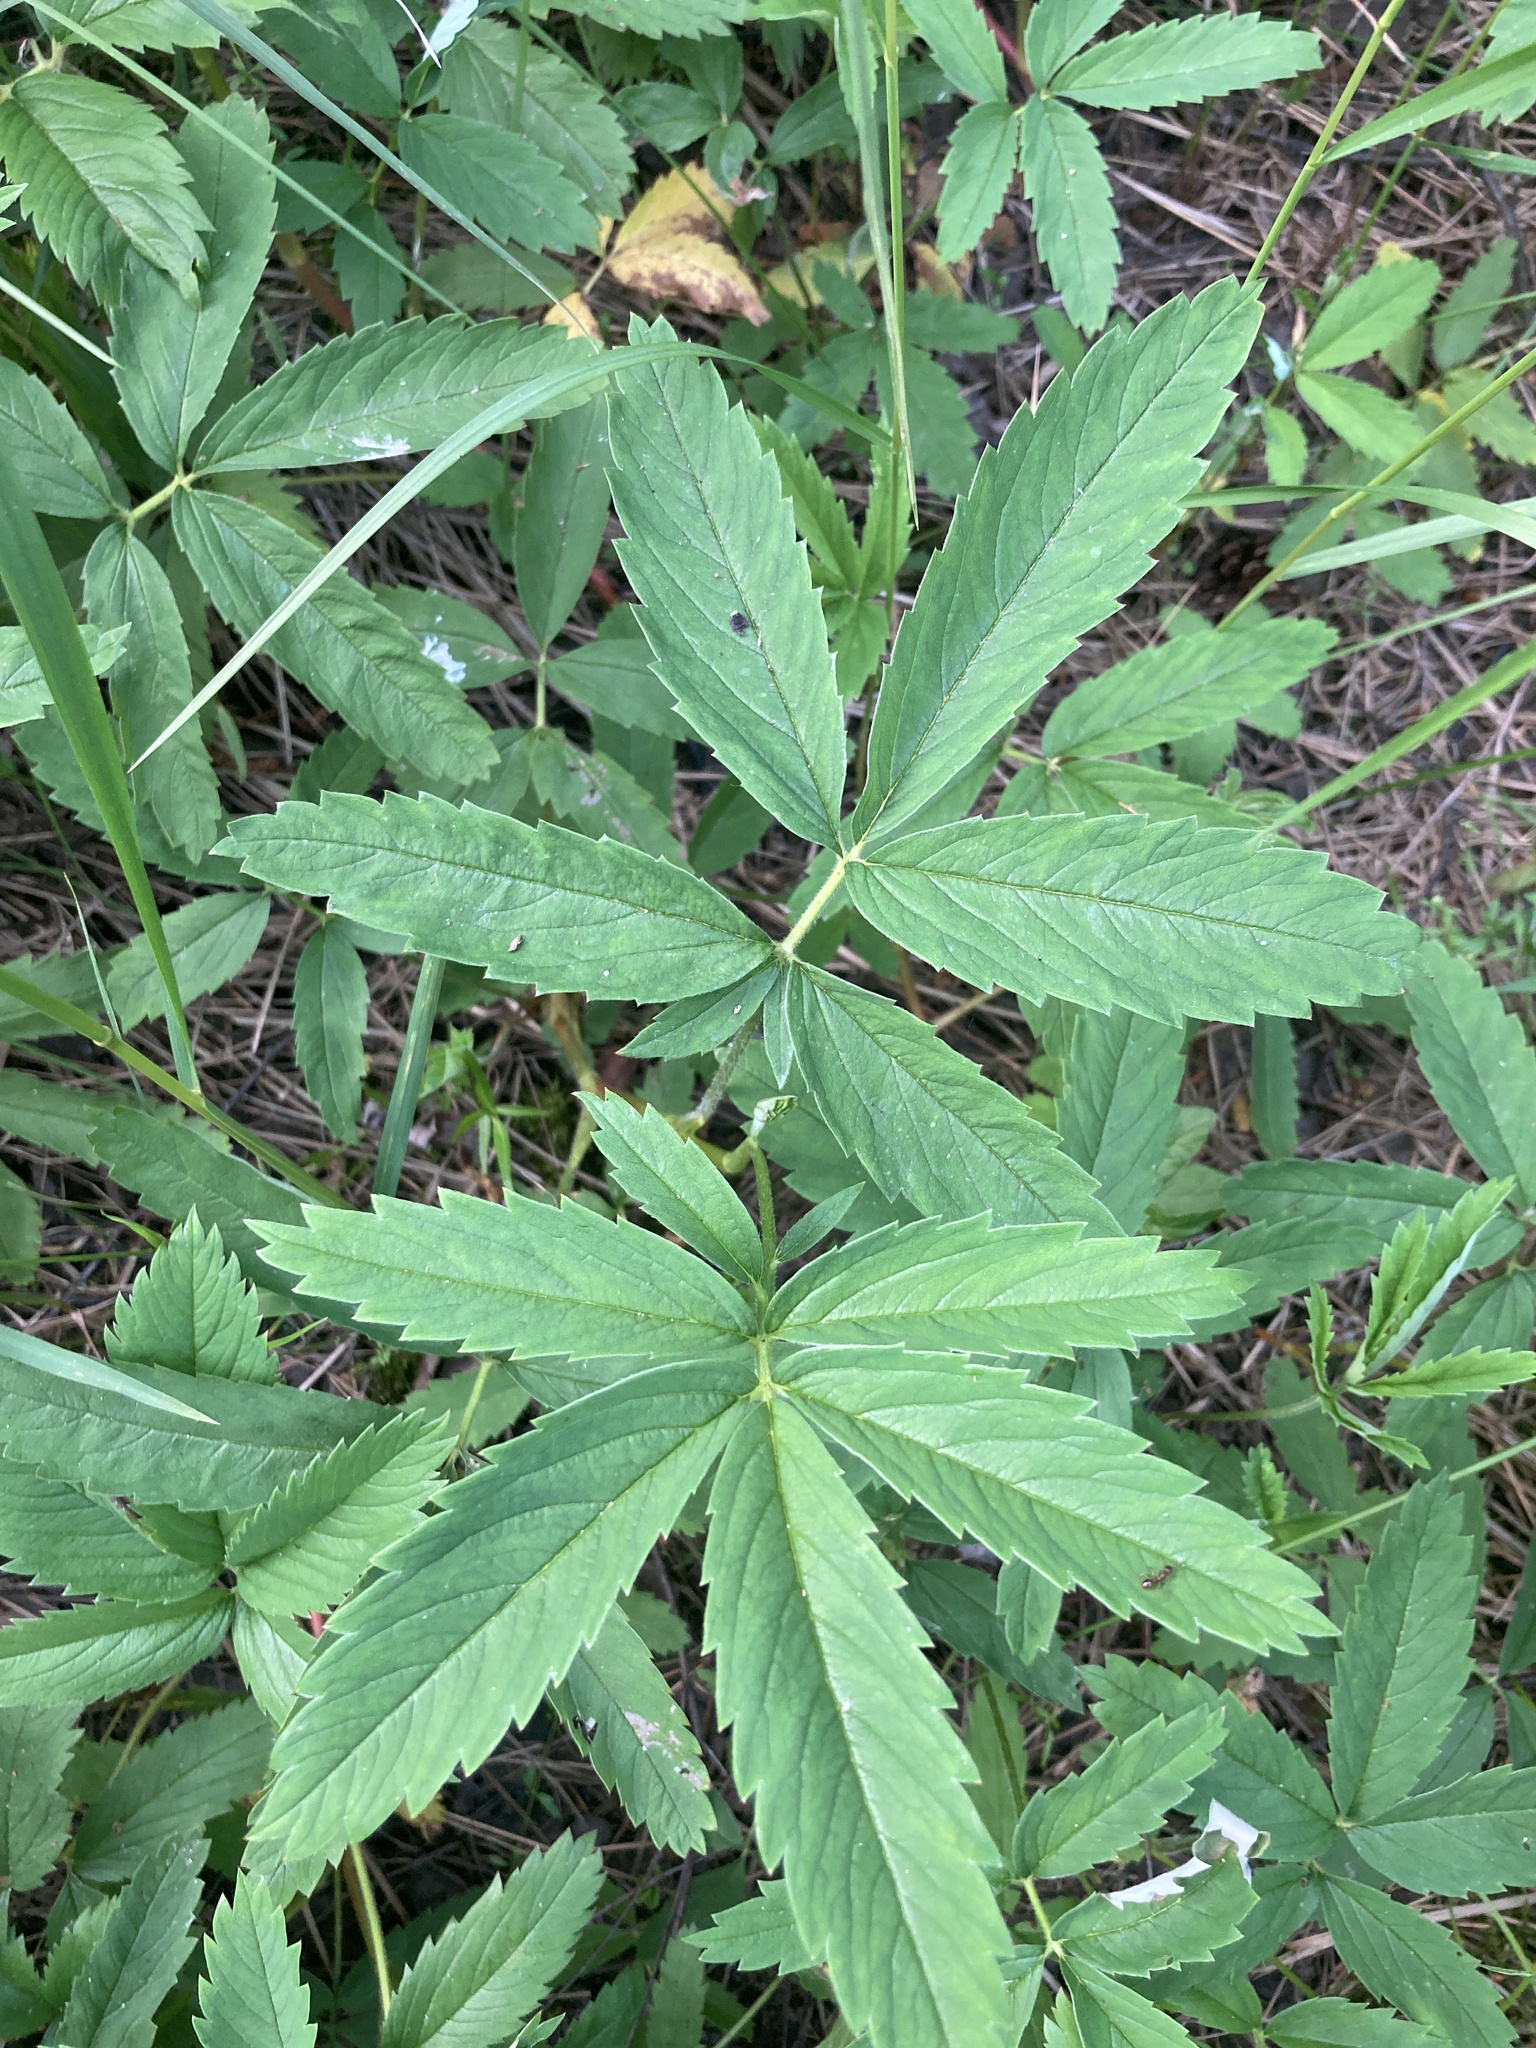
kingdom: Plantae
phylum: Tracheophyta
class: Magnoliopsida
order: Rosales
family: Rosaceae
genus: Comarum
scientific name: Comarum palustre
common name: Marsh cinquefoil
